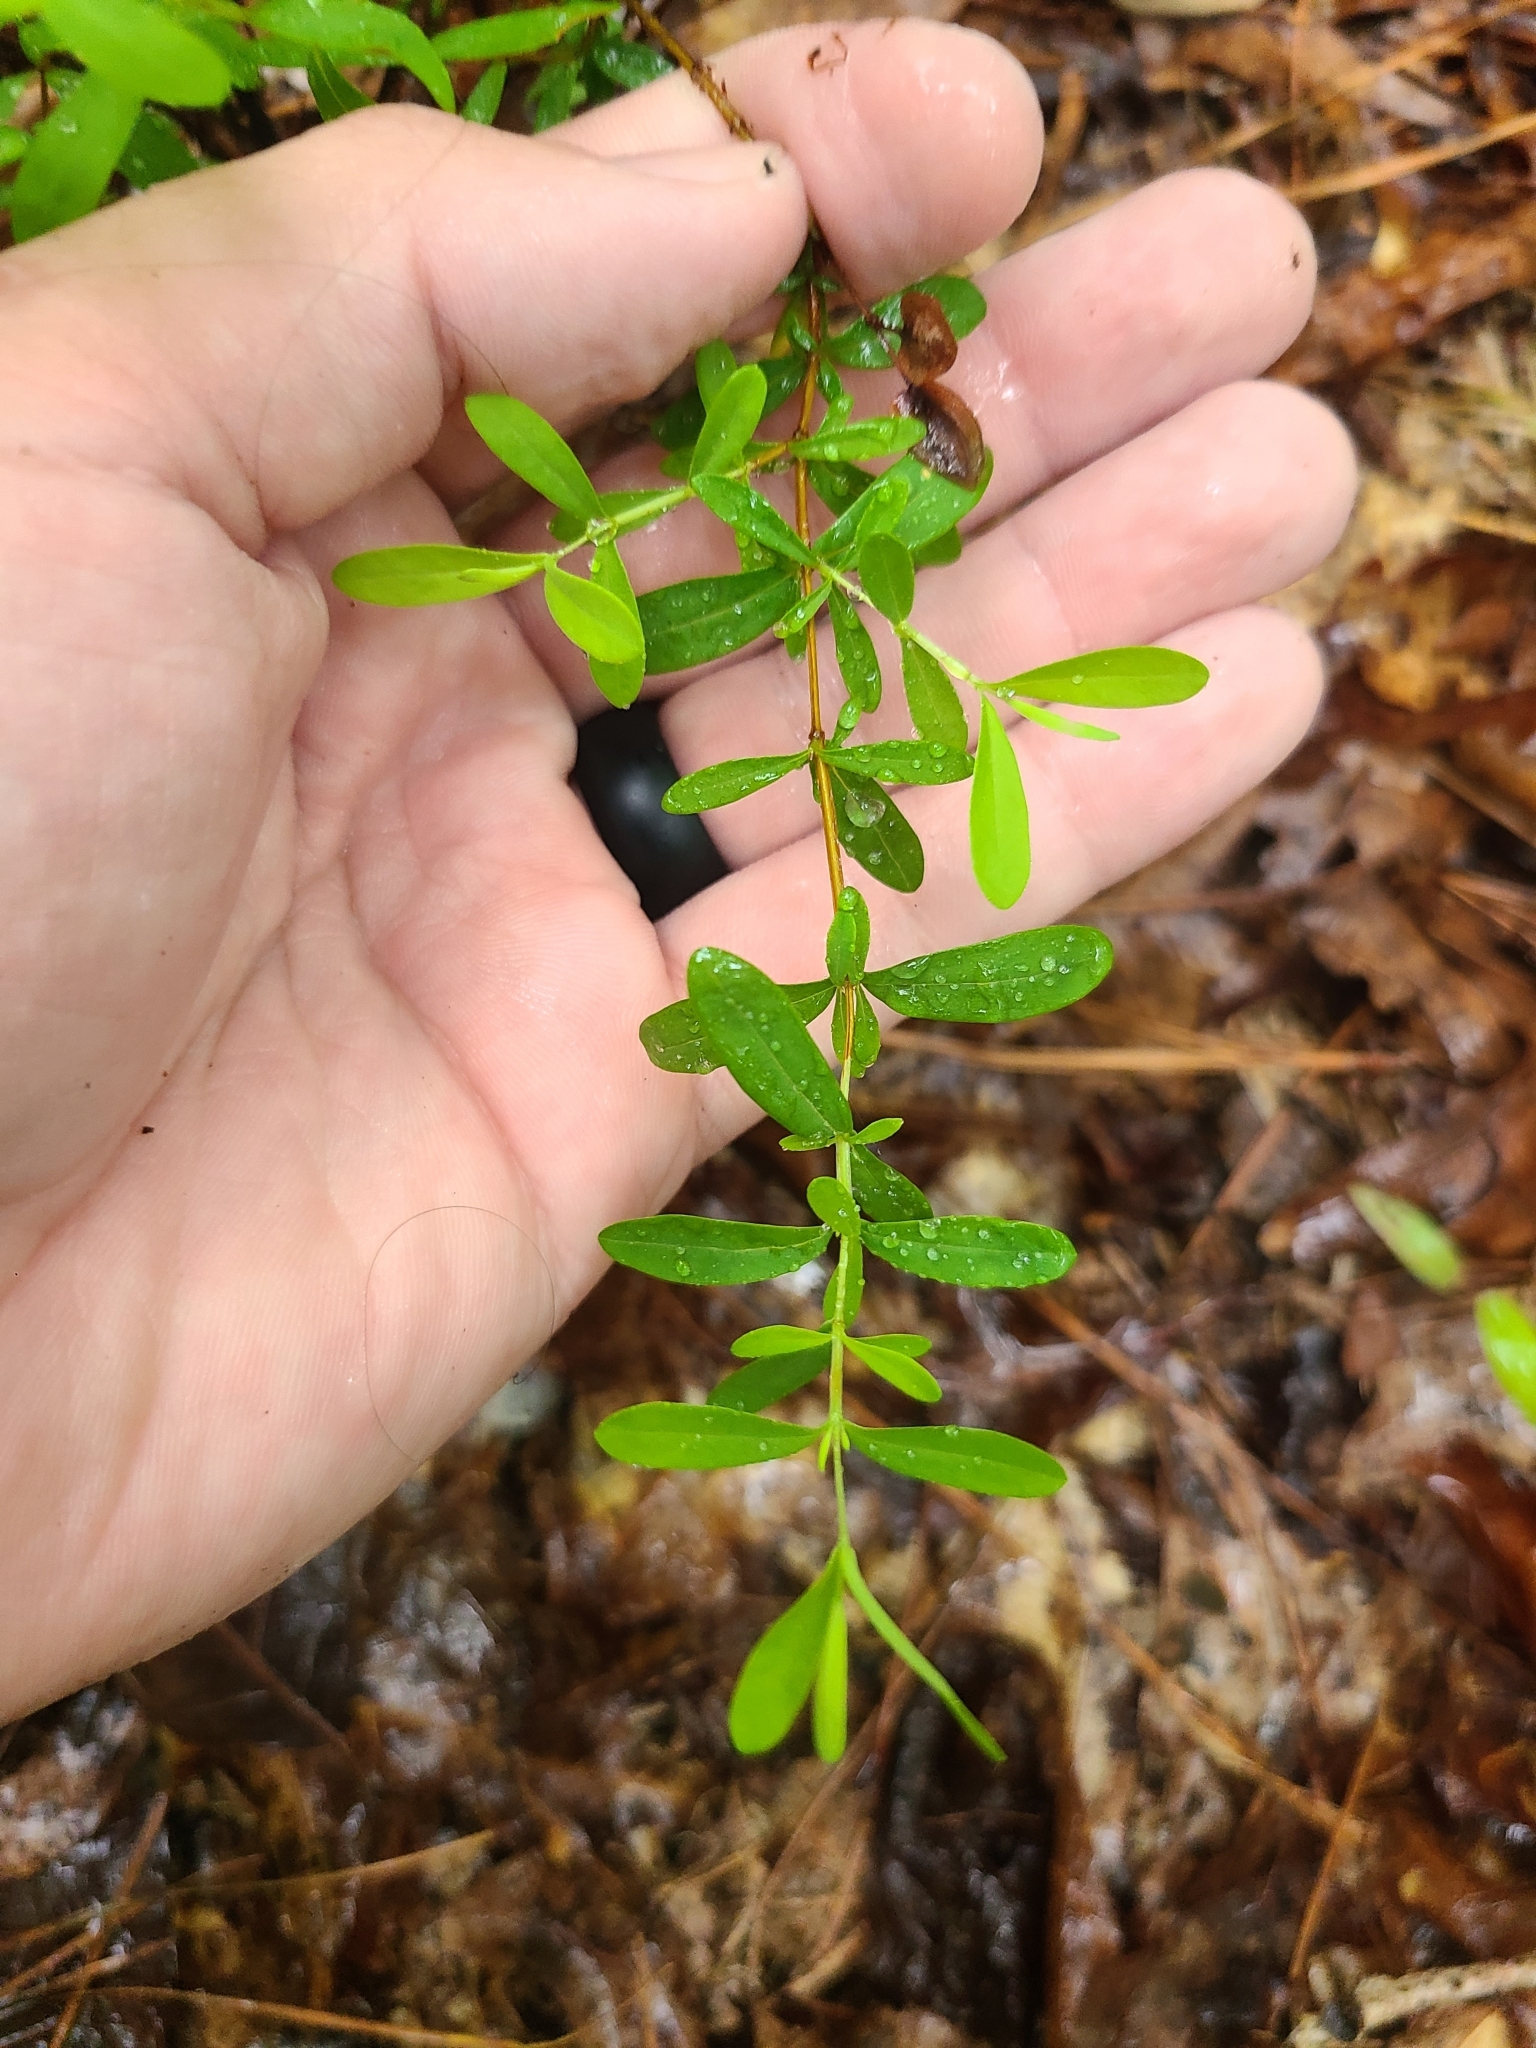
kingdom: Plantae
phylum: Tracheophyta
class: Magnoliopsida
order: Malpighiales
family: Hypericaceae
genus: Hypericum
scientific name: Hypericum hypericoides
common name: St. andrew's cross
